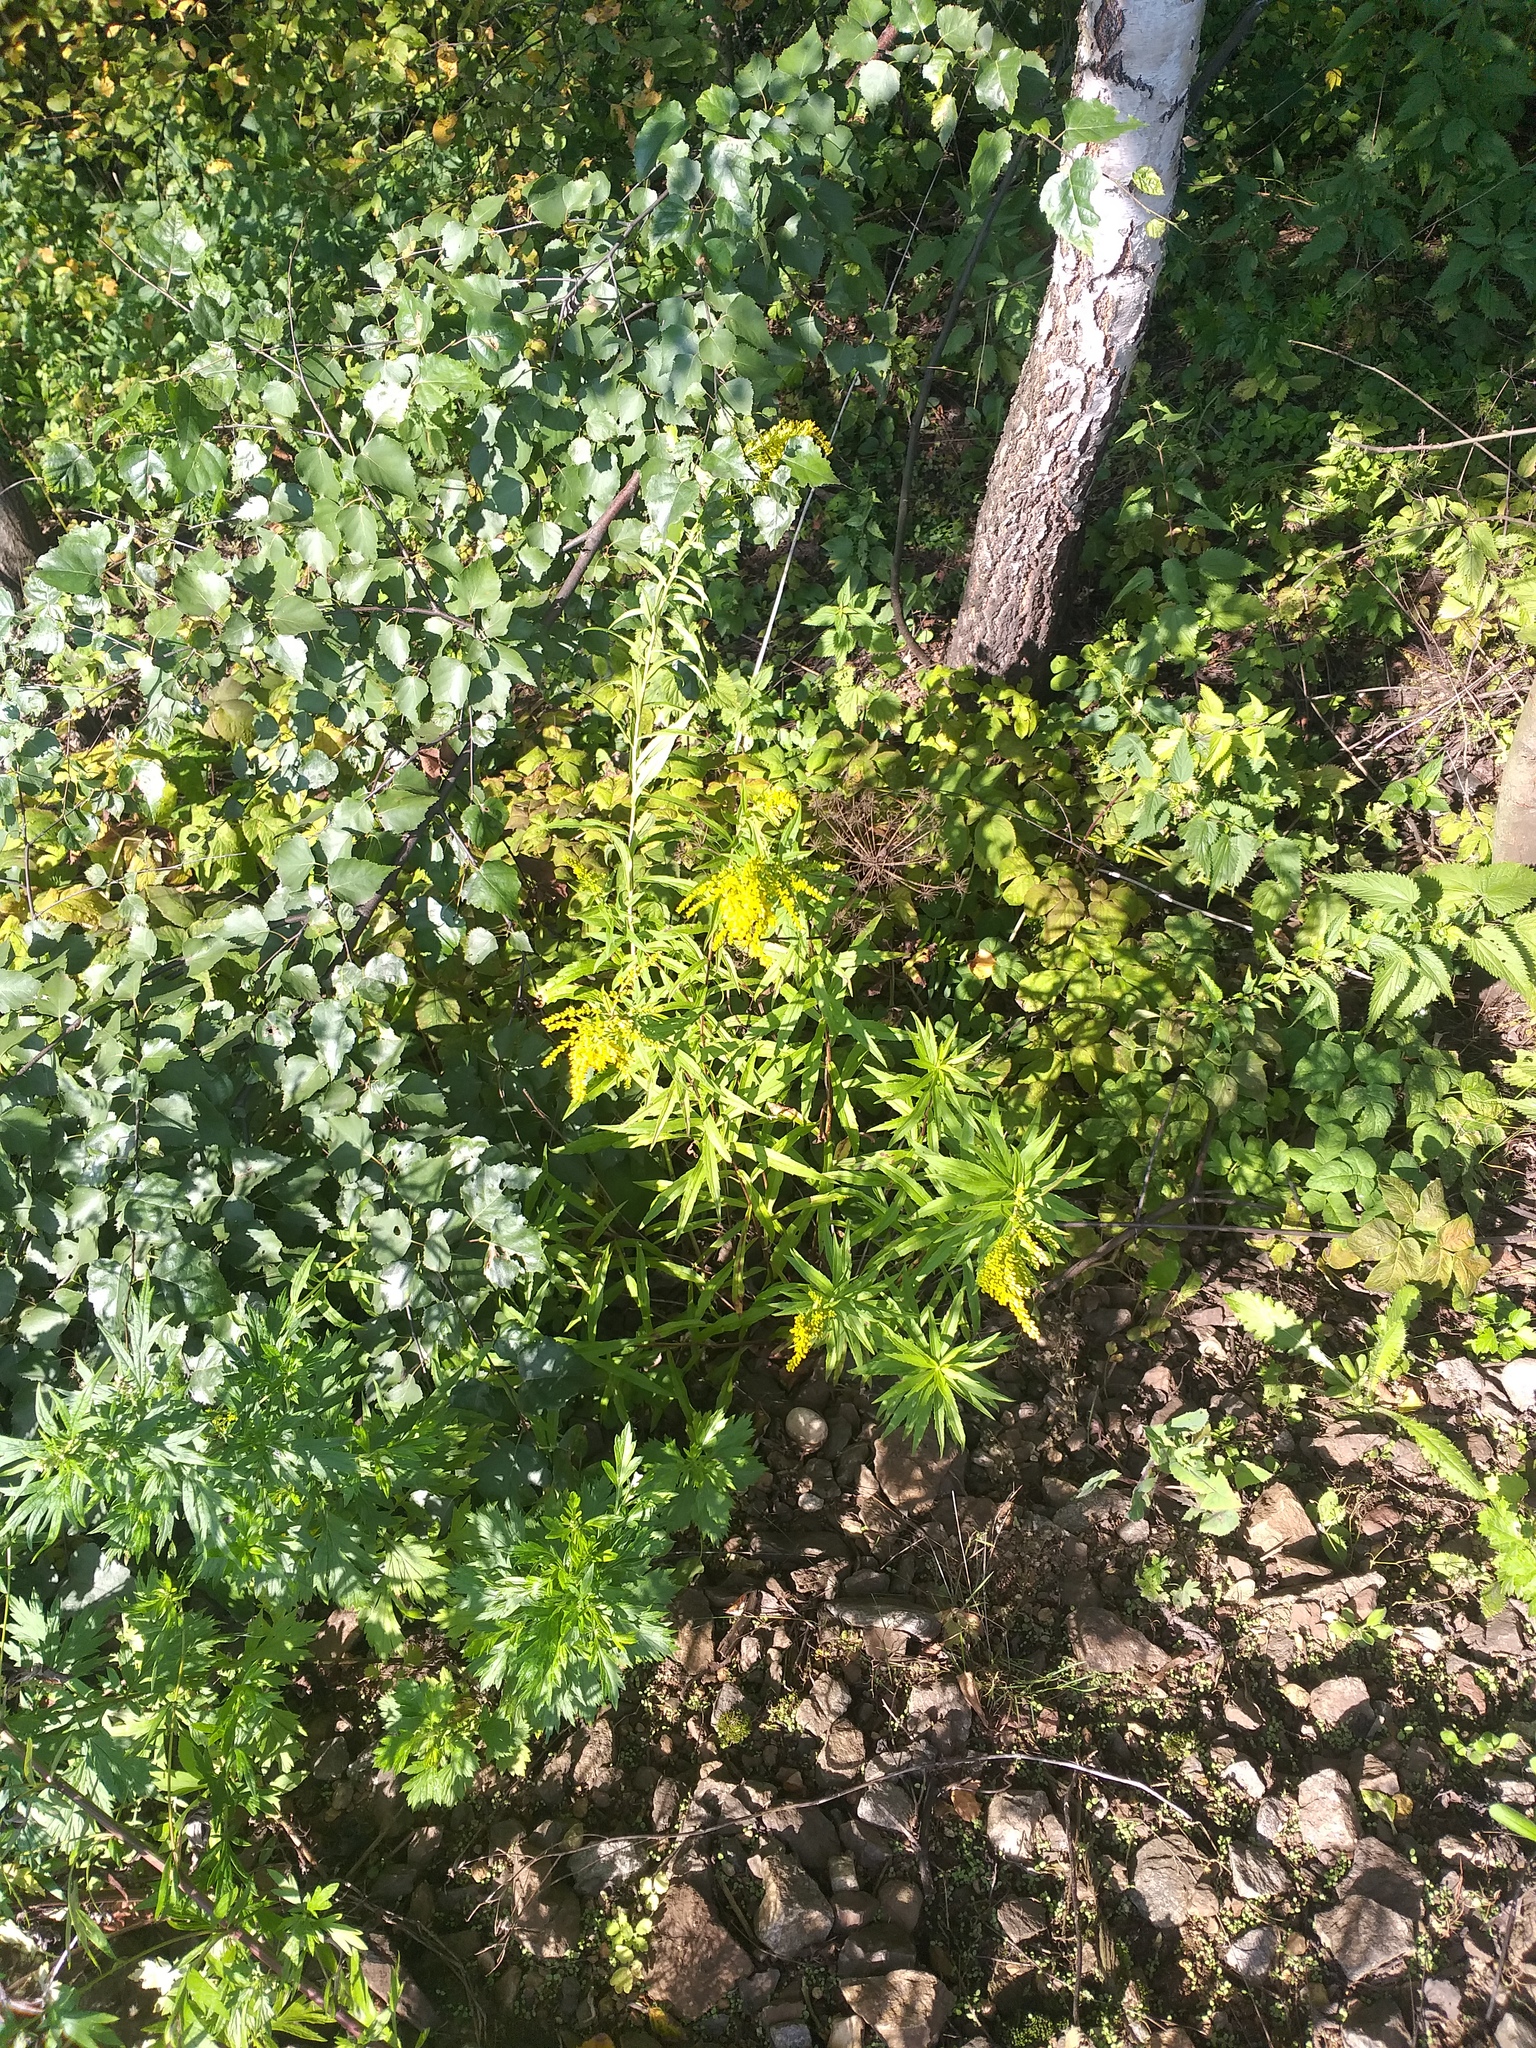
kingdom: Plantae
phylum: Tracheophyta
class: Magnoliopsida
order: Asterales
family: Asteraceae
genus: Solidago
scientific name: Solidago canadensis
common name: Canada goldenrod
